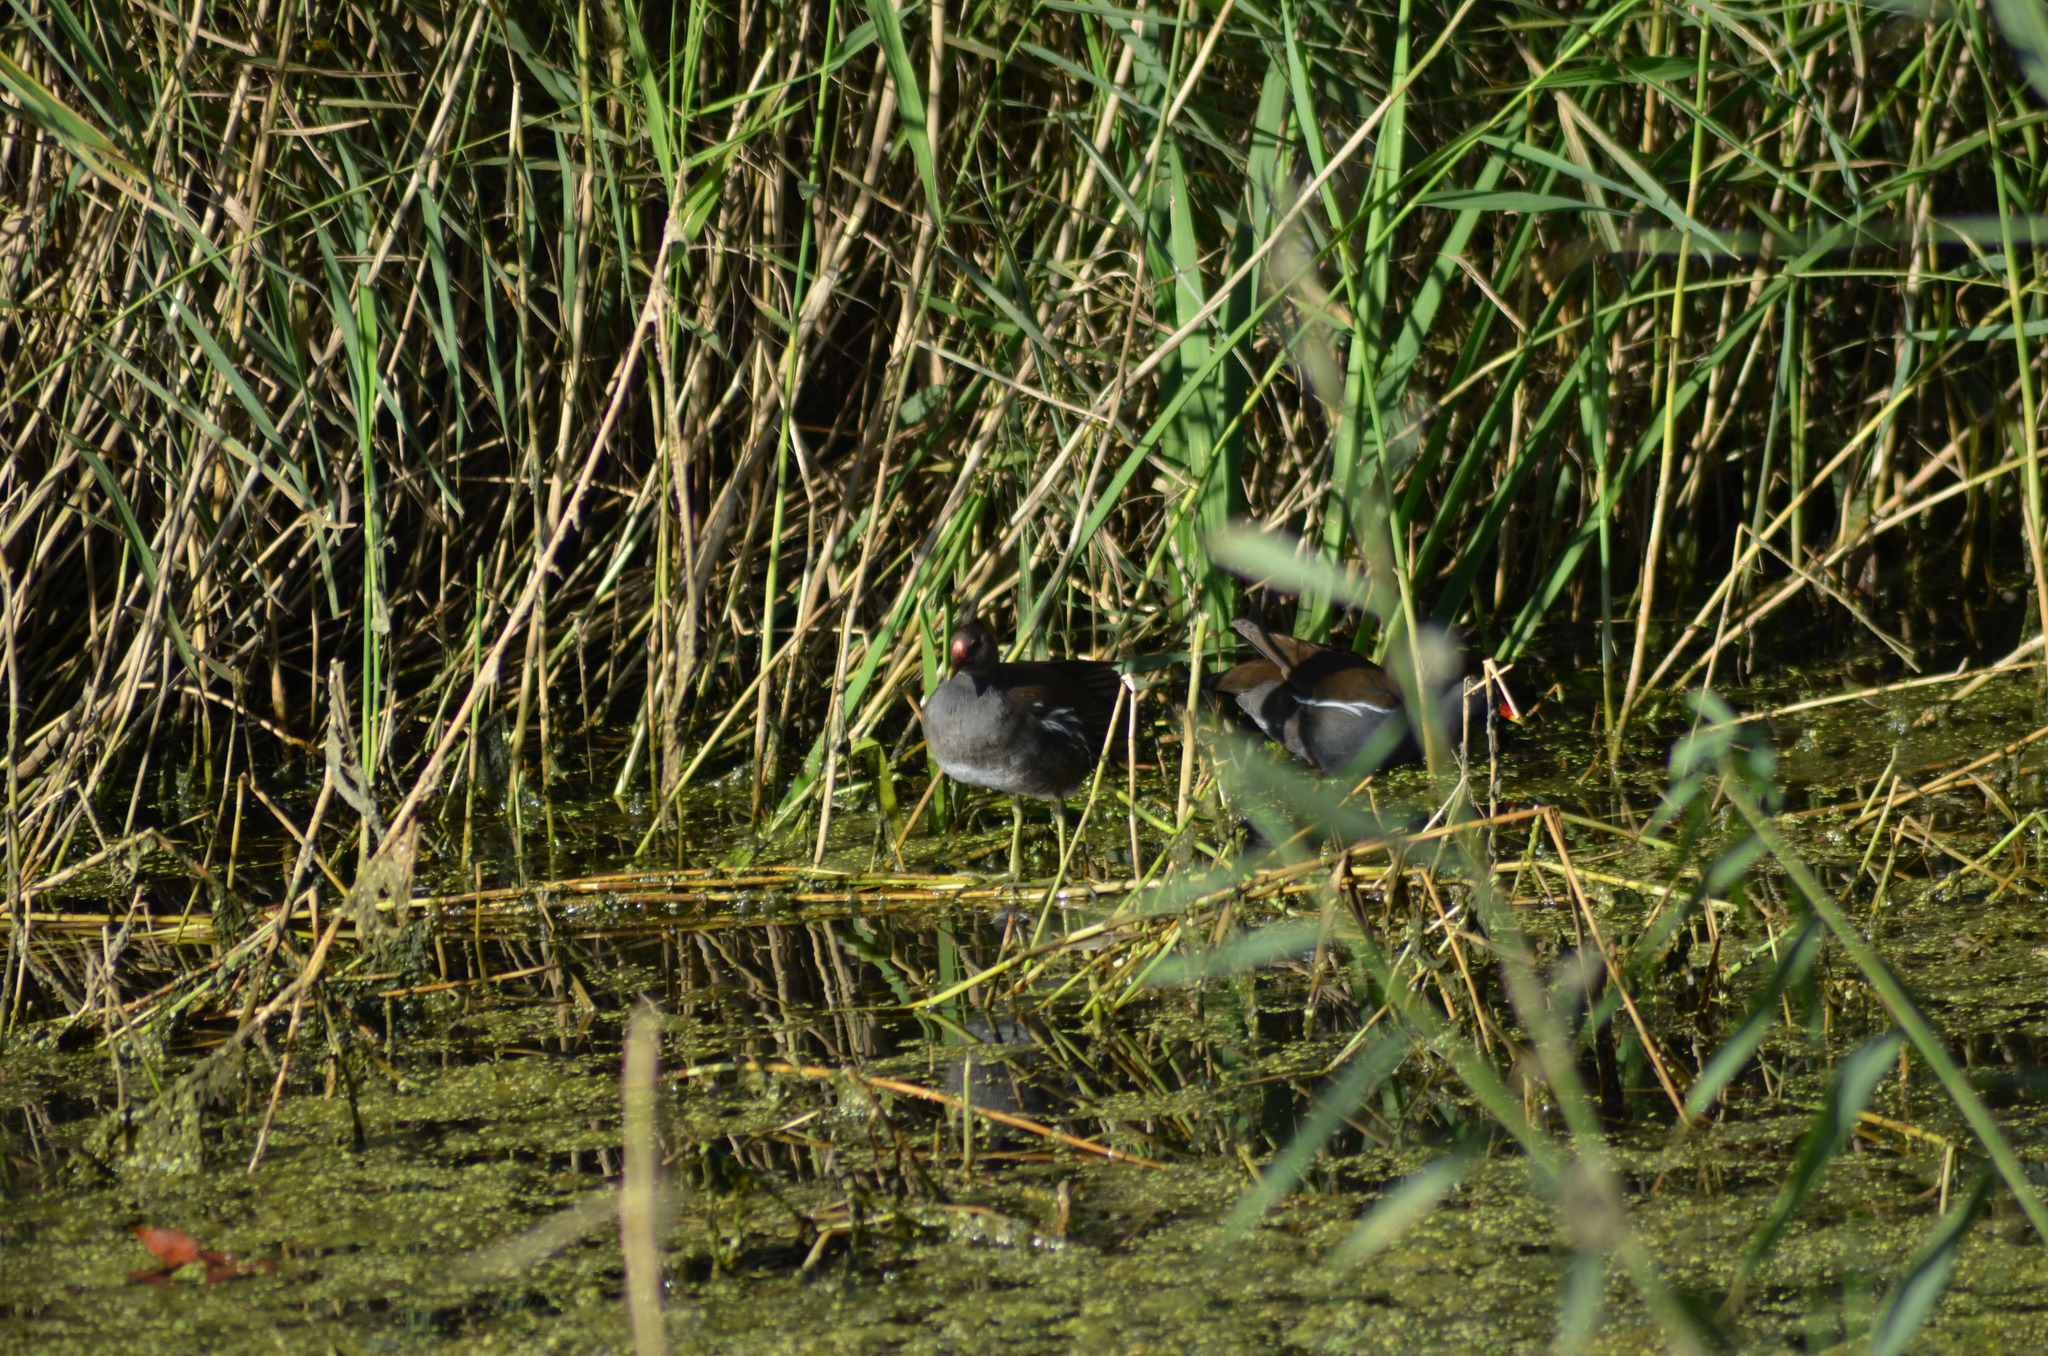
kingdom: Animalia
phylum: Chordata
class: Aves
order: Gruiformes
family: Rallidae
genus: Gallinula
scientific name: Gallinula chloropus
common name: Common moorhen
